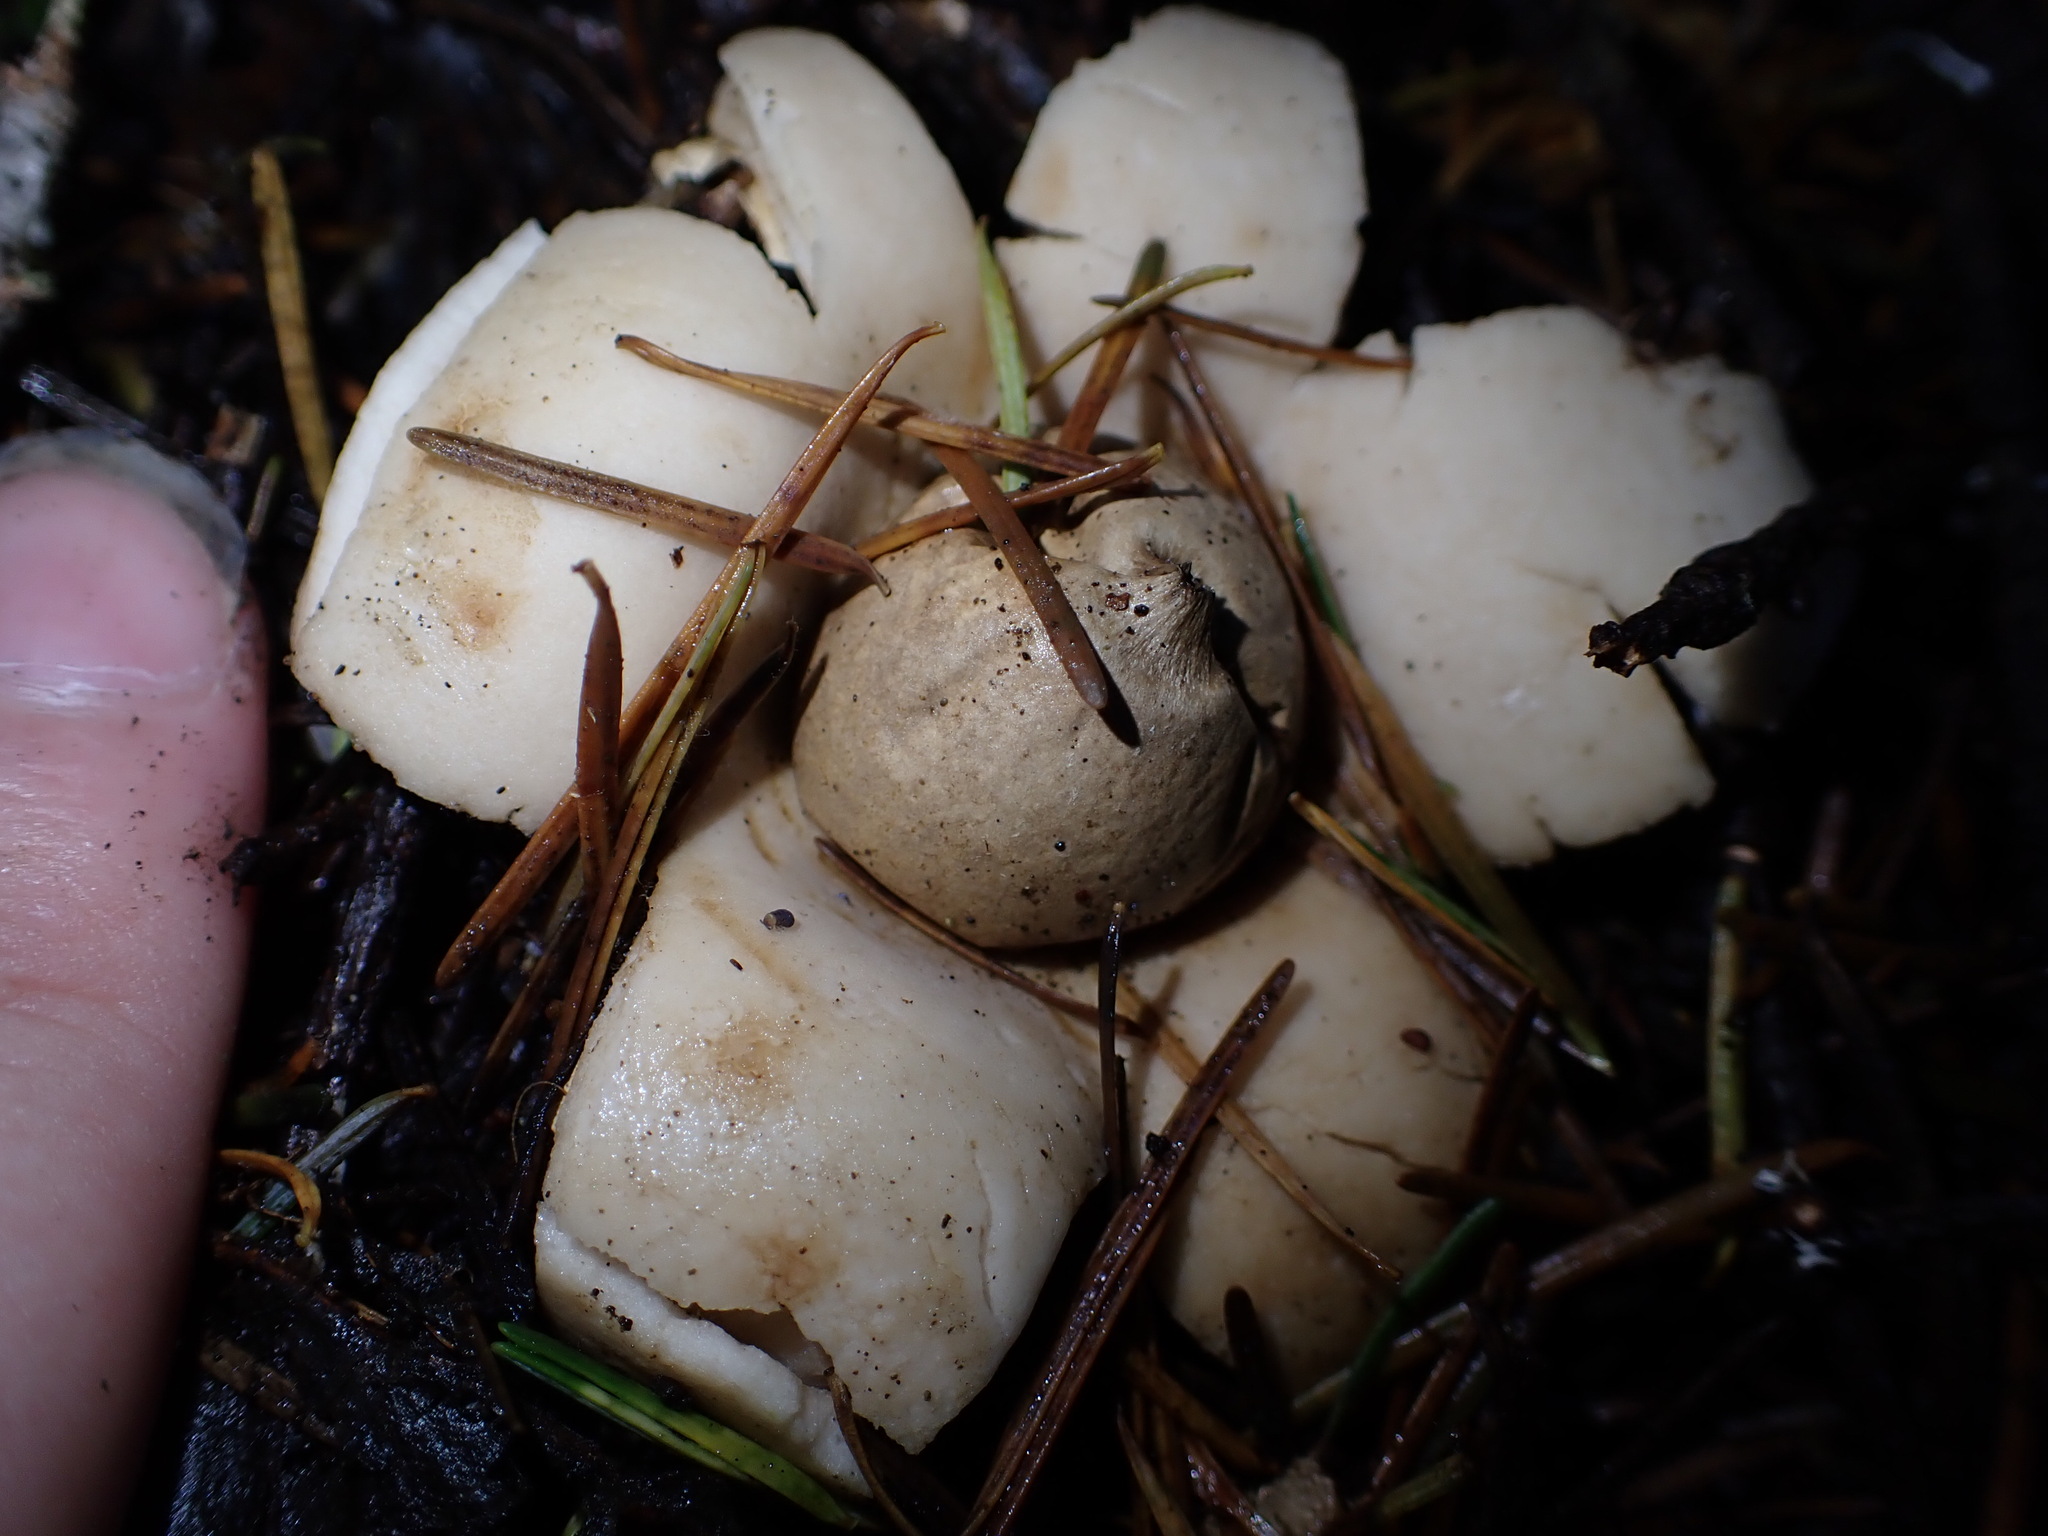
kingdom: Fungi
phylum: Basidiomycota
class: Agaricomycetes
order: Geastrales
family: Geastraceae
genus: Geastrum
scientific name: Geastrum saccatum
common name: Rounded earthstar
